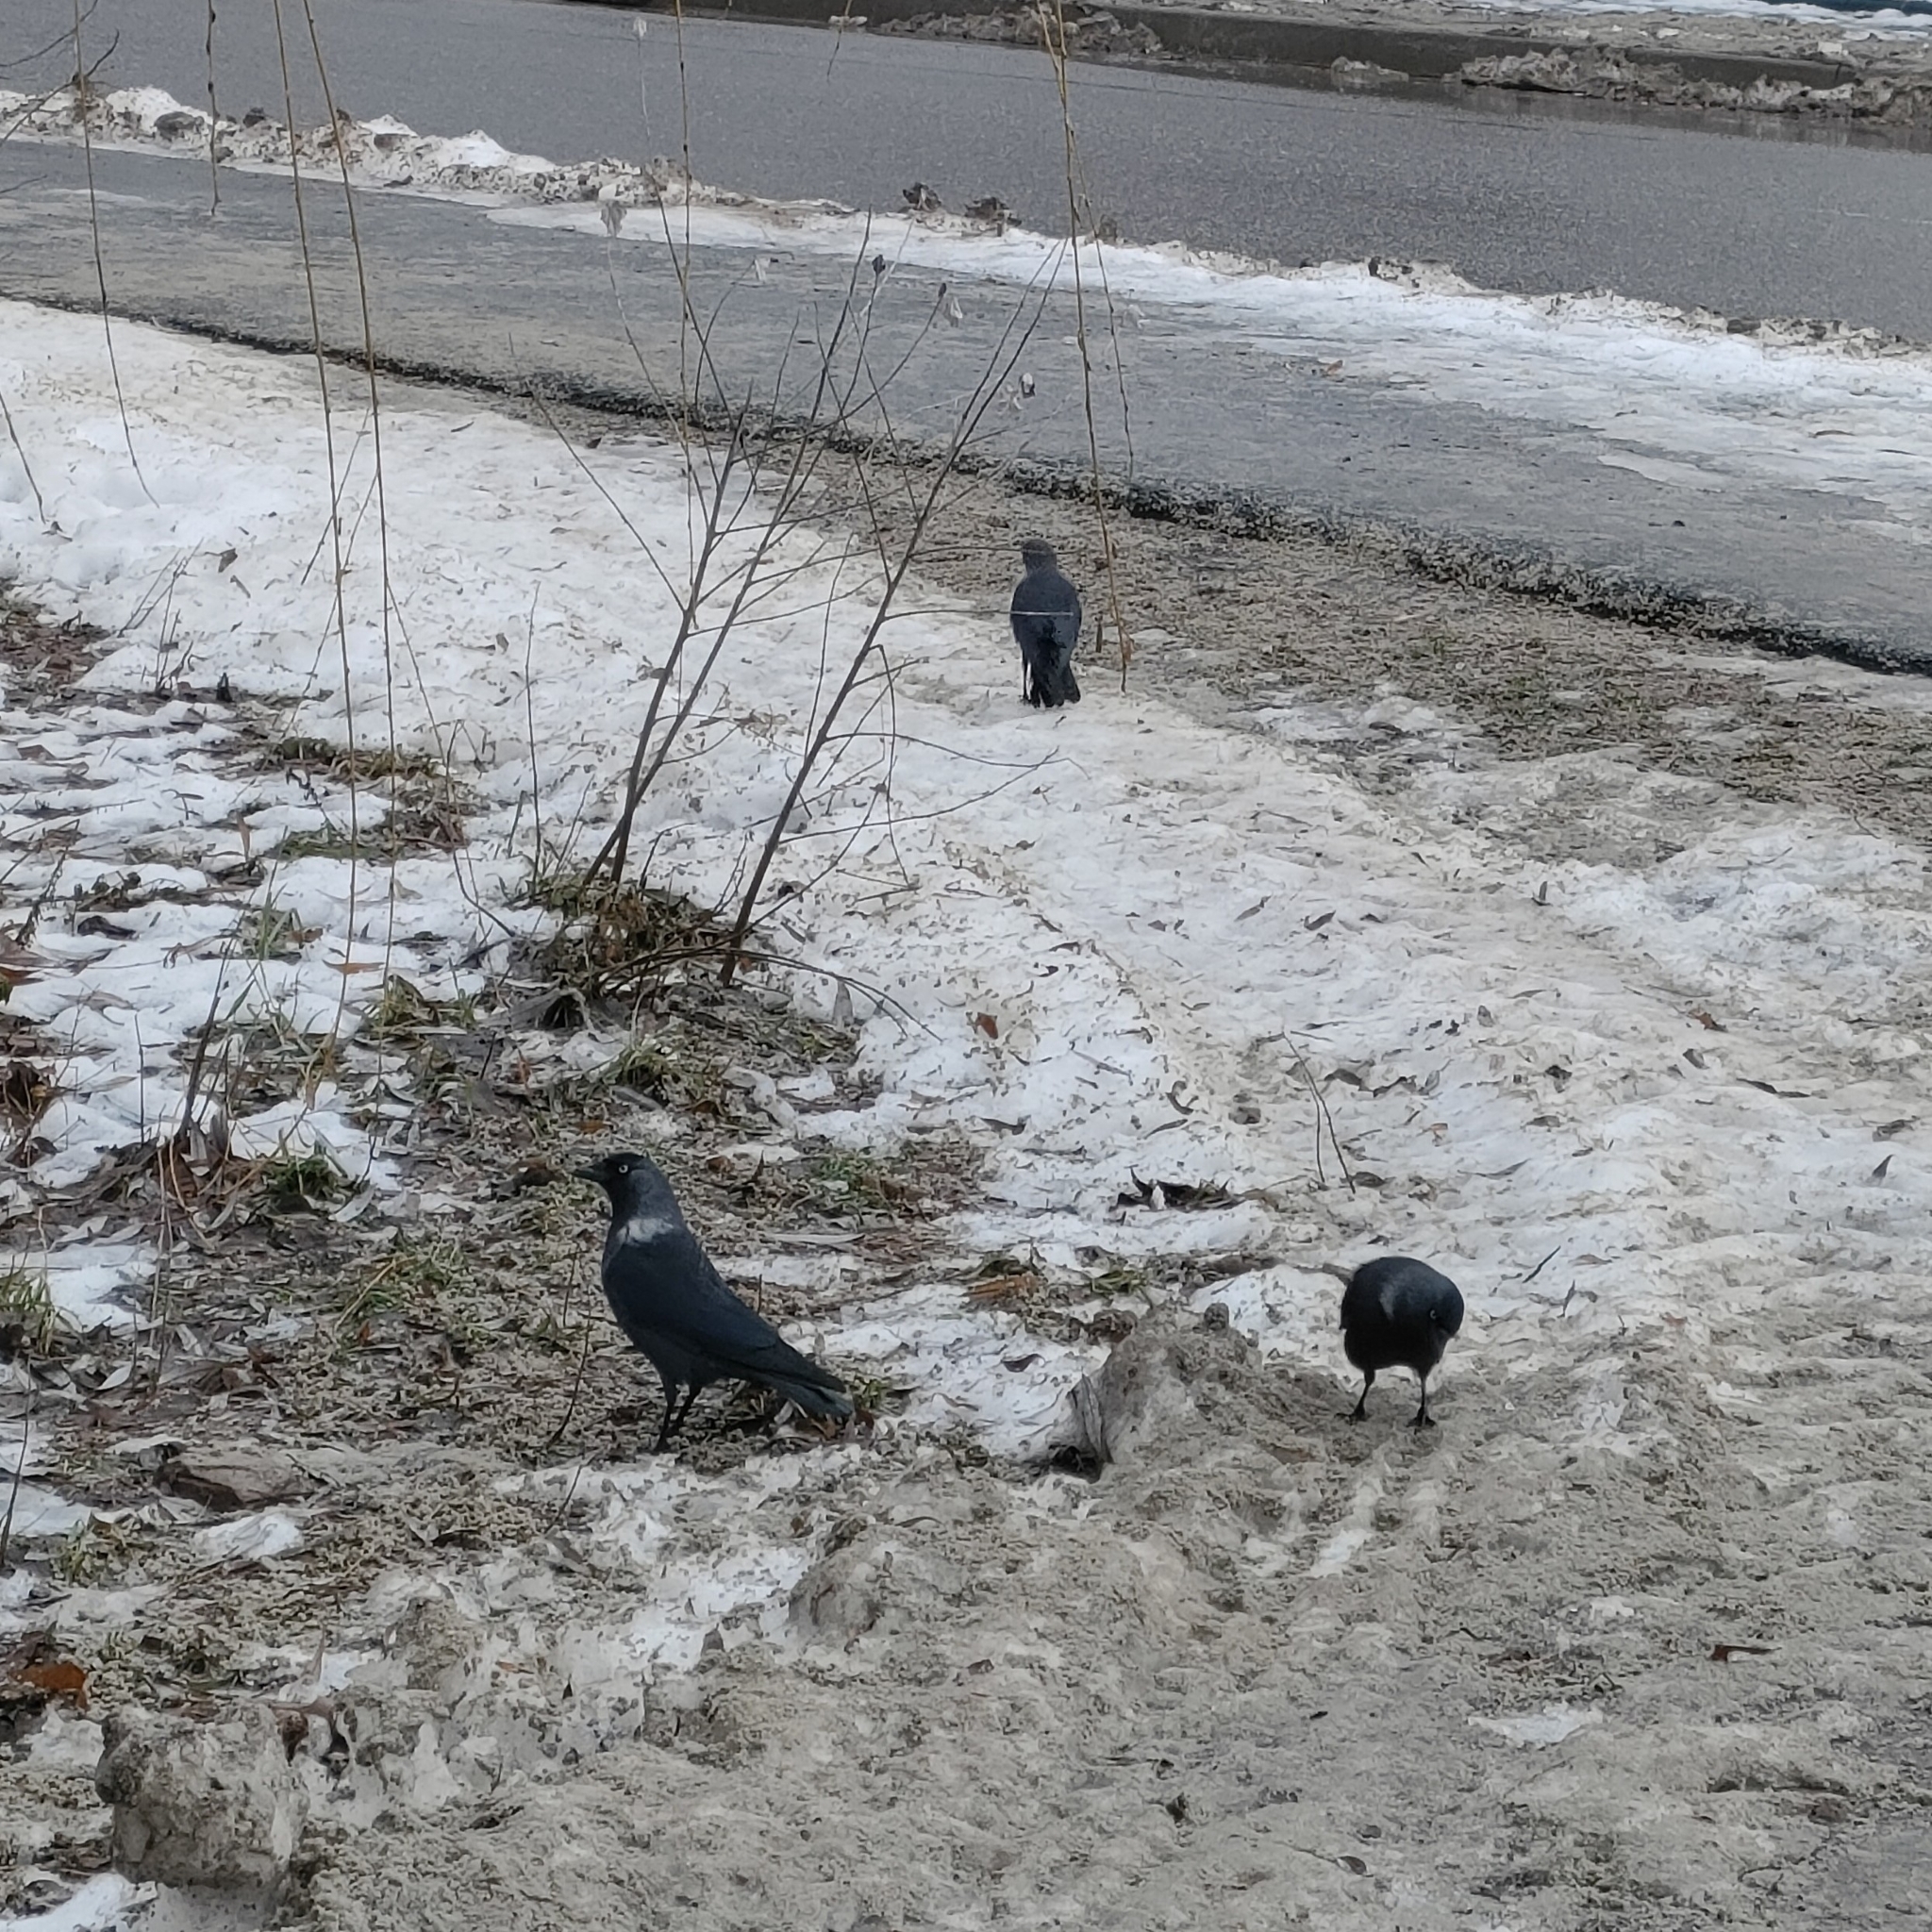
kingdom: Animalia
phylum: Chordata
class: Aves
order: Passeriformes
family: Corvidae
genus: Coloeus
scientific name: Coloeus monedula
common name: Western jackdaw
